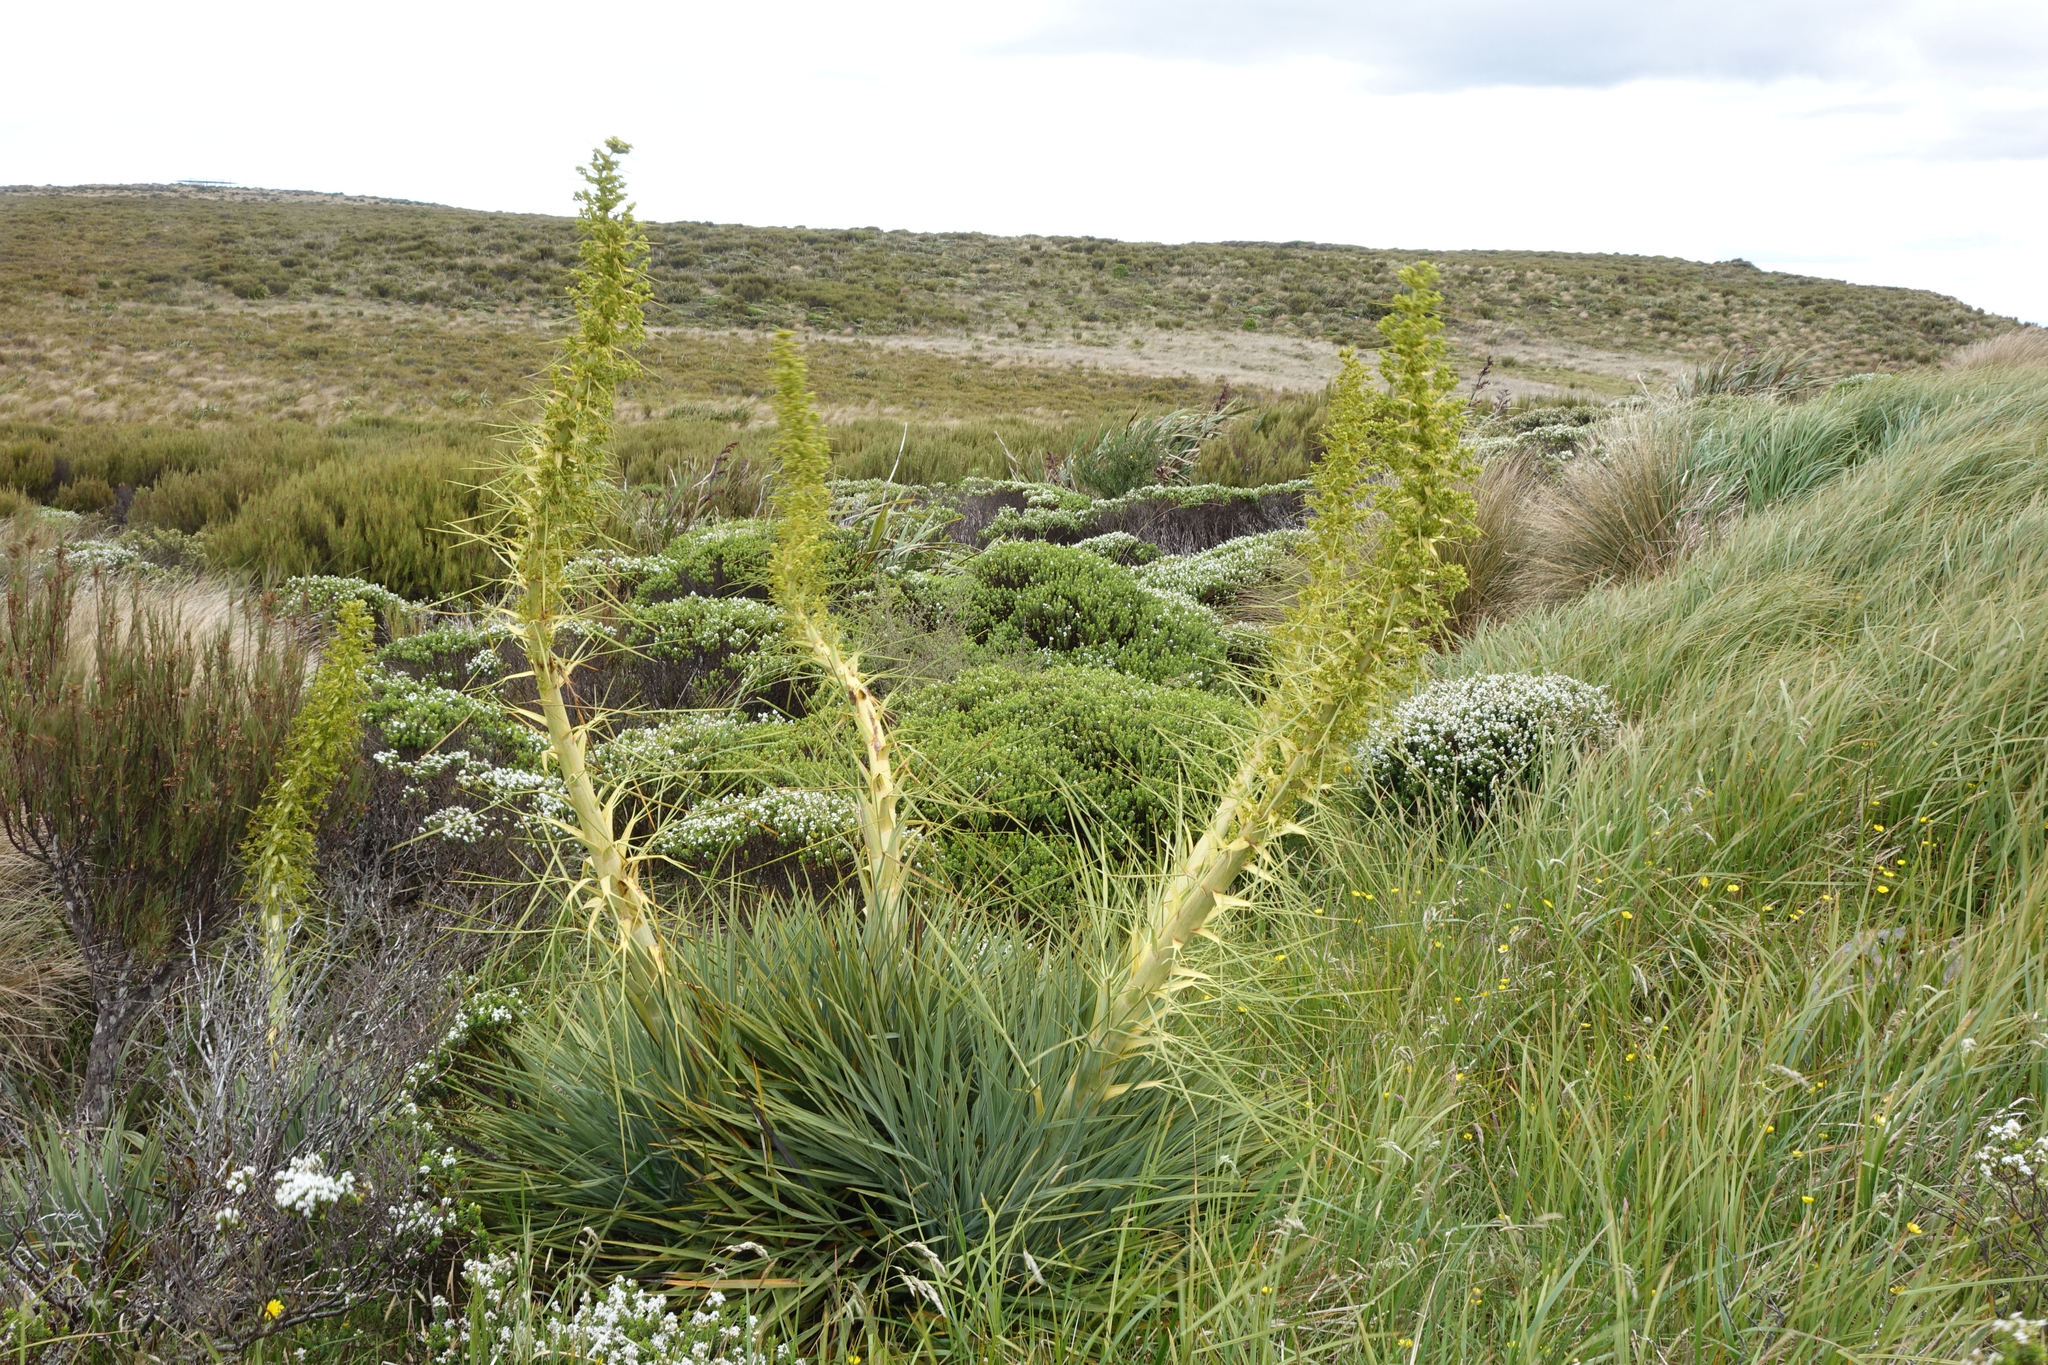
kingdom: Plantae
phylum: Tracheophyta
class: Magnoliopsida
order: Apiales
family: Apiaceae
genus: Aciphylla
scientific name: Aciphylla scott-thomsonii
